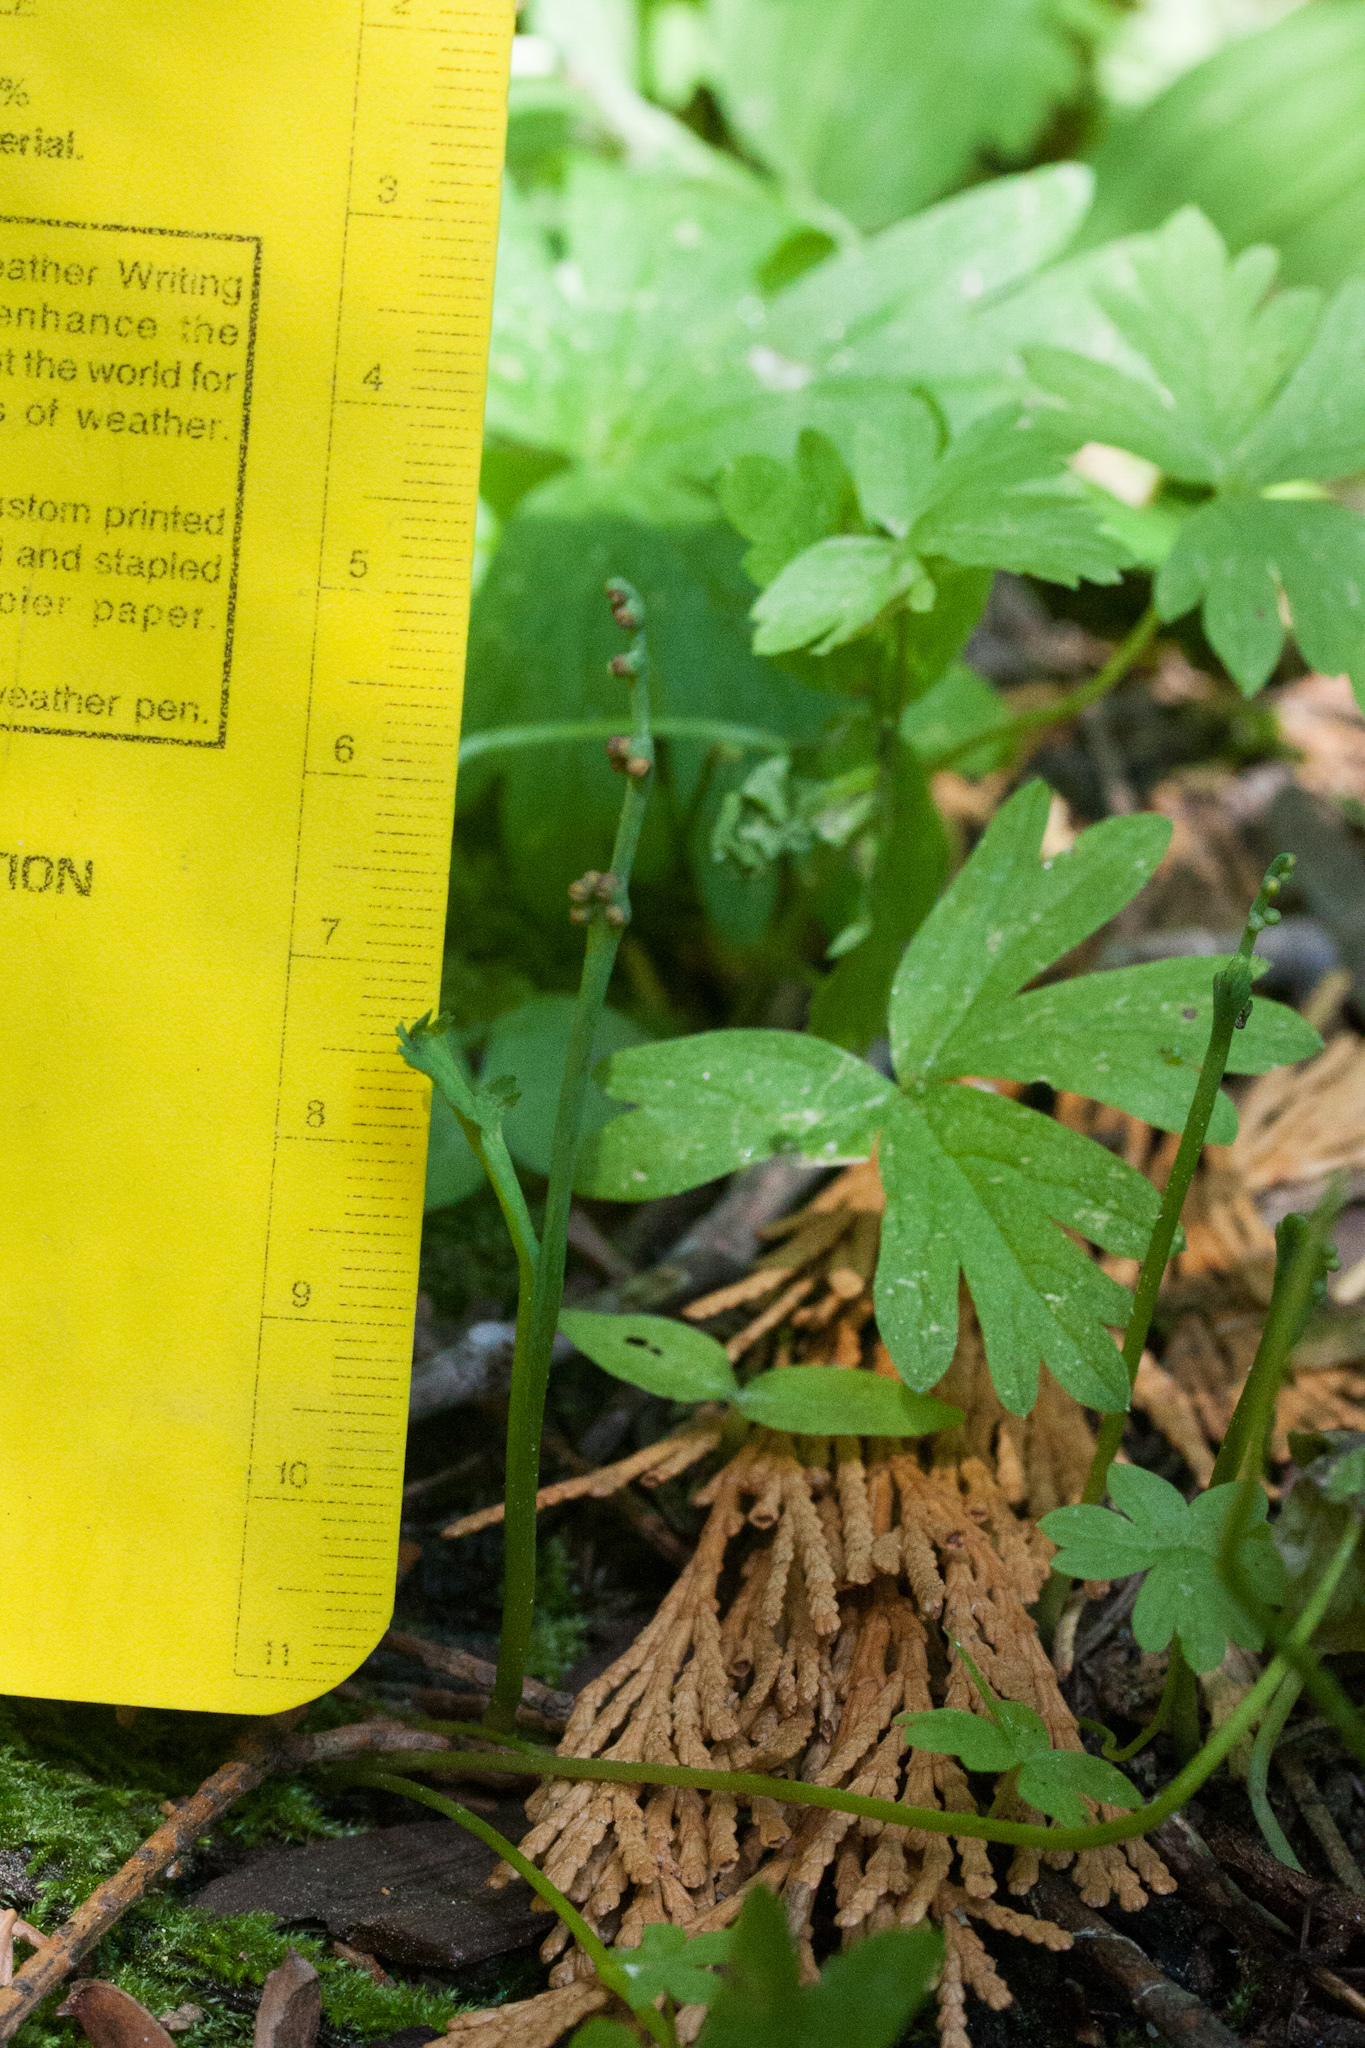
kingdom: Plantae
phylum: Tracheophyta
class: Polypodiopsida
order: Ophioglossales
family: Ophioglossaceae
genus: Botrychium
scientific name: Botrychium montanum
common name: Mountain moonwort
